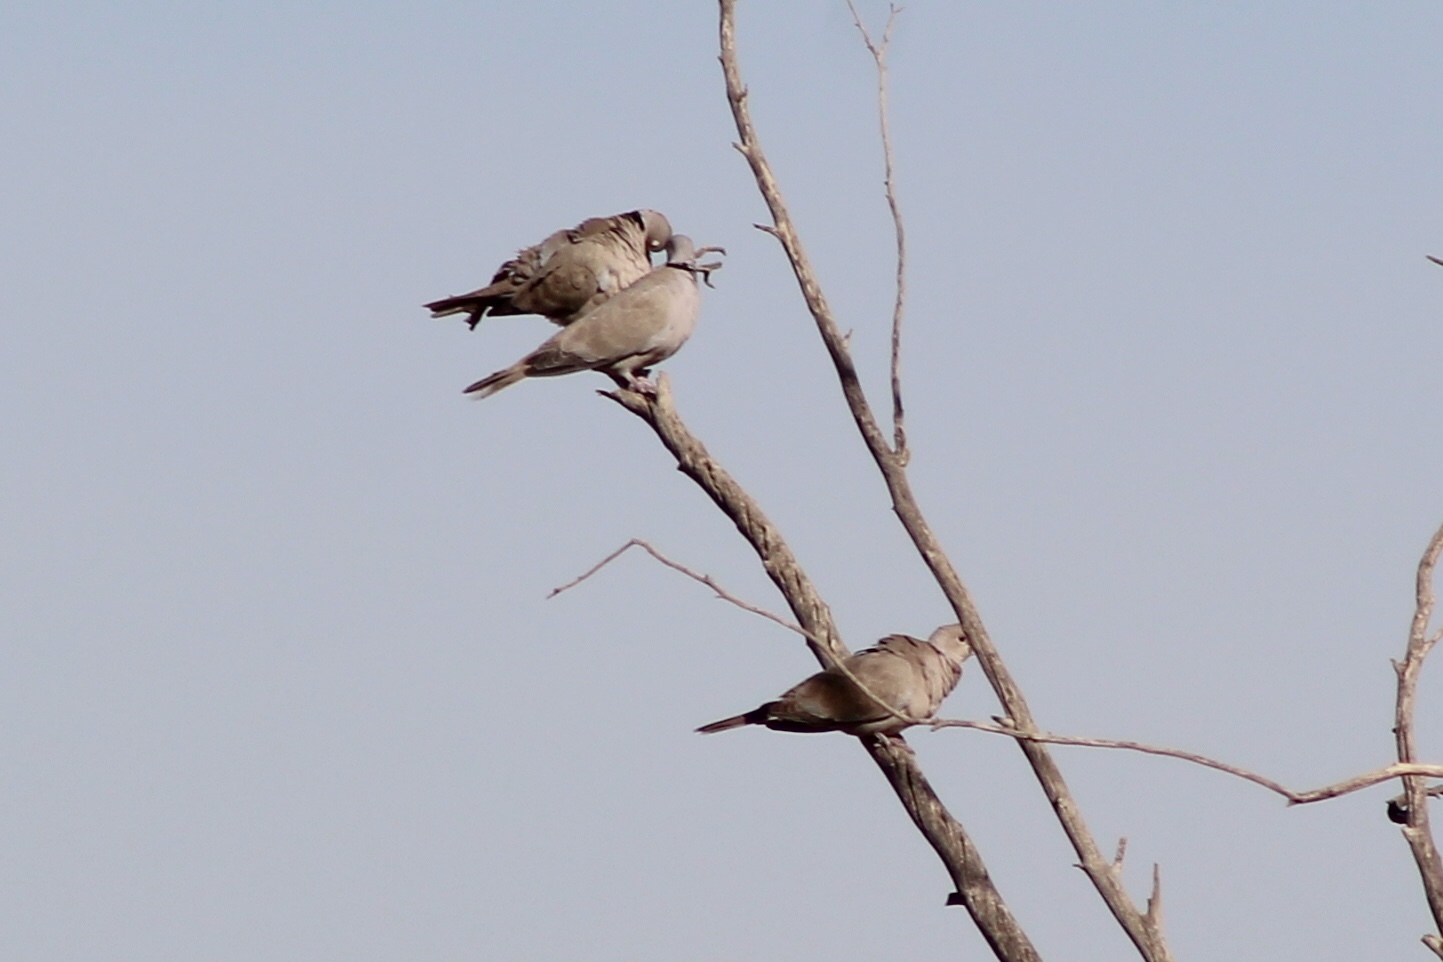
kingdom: Animalia
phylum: Chordata
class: Aves
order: Columbiformes
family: Columbidae
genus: Streptopelia
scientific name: Streptopelia decaocto
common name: Eurasian collared dove
